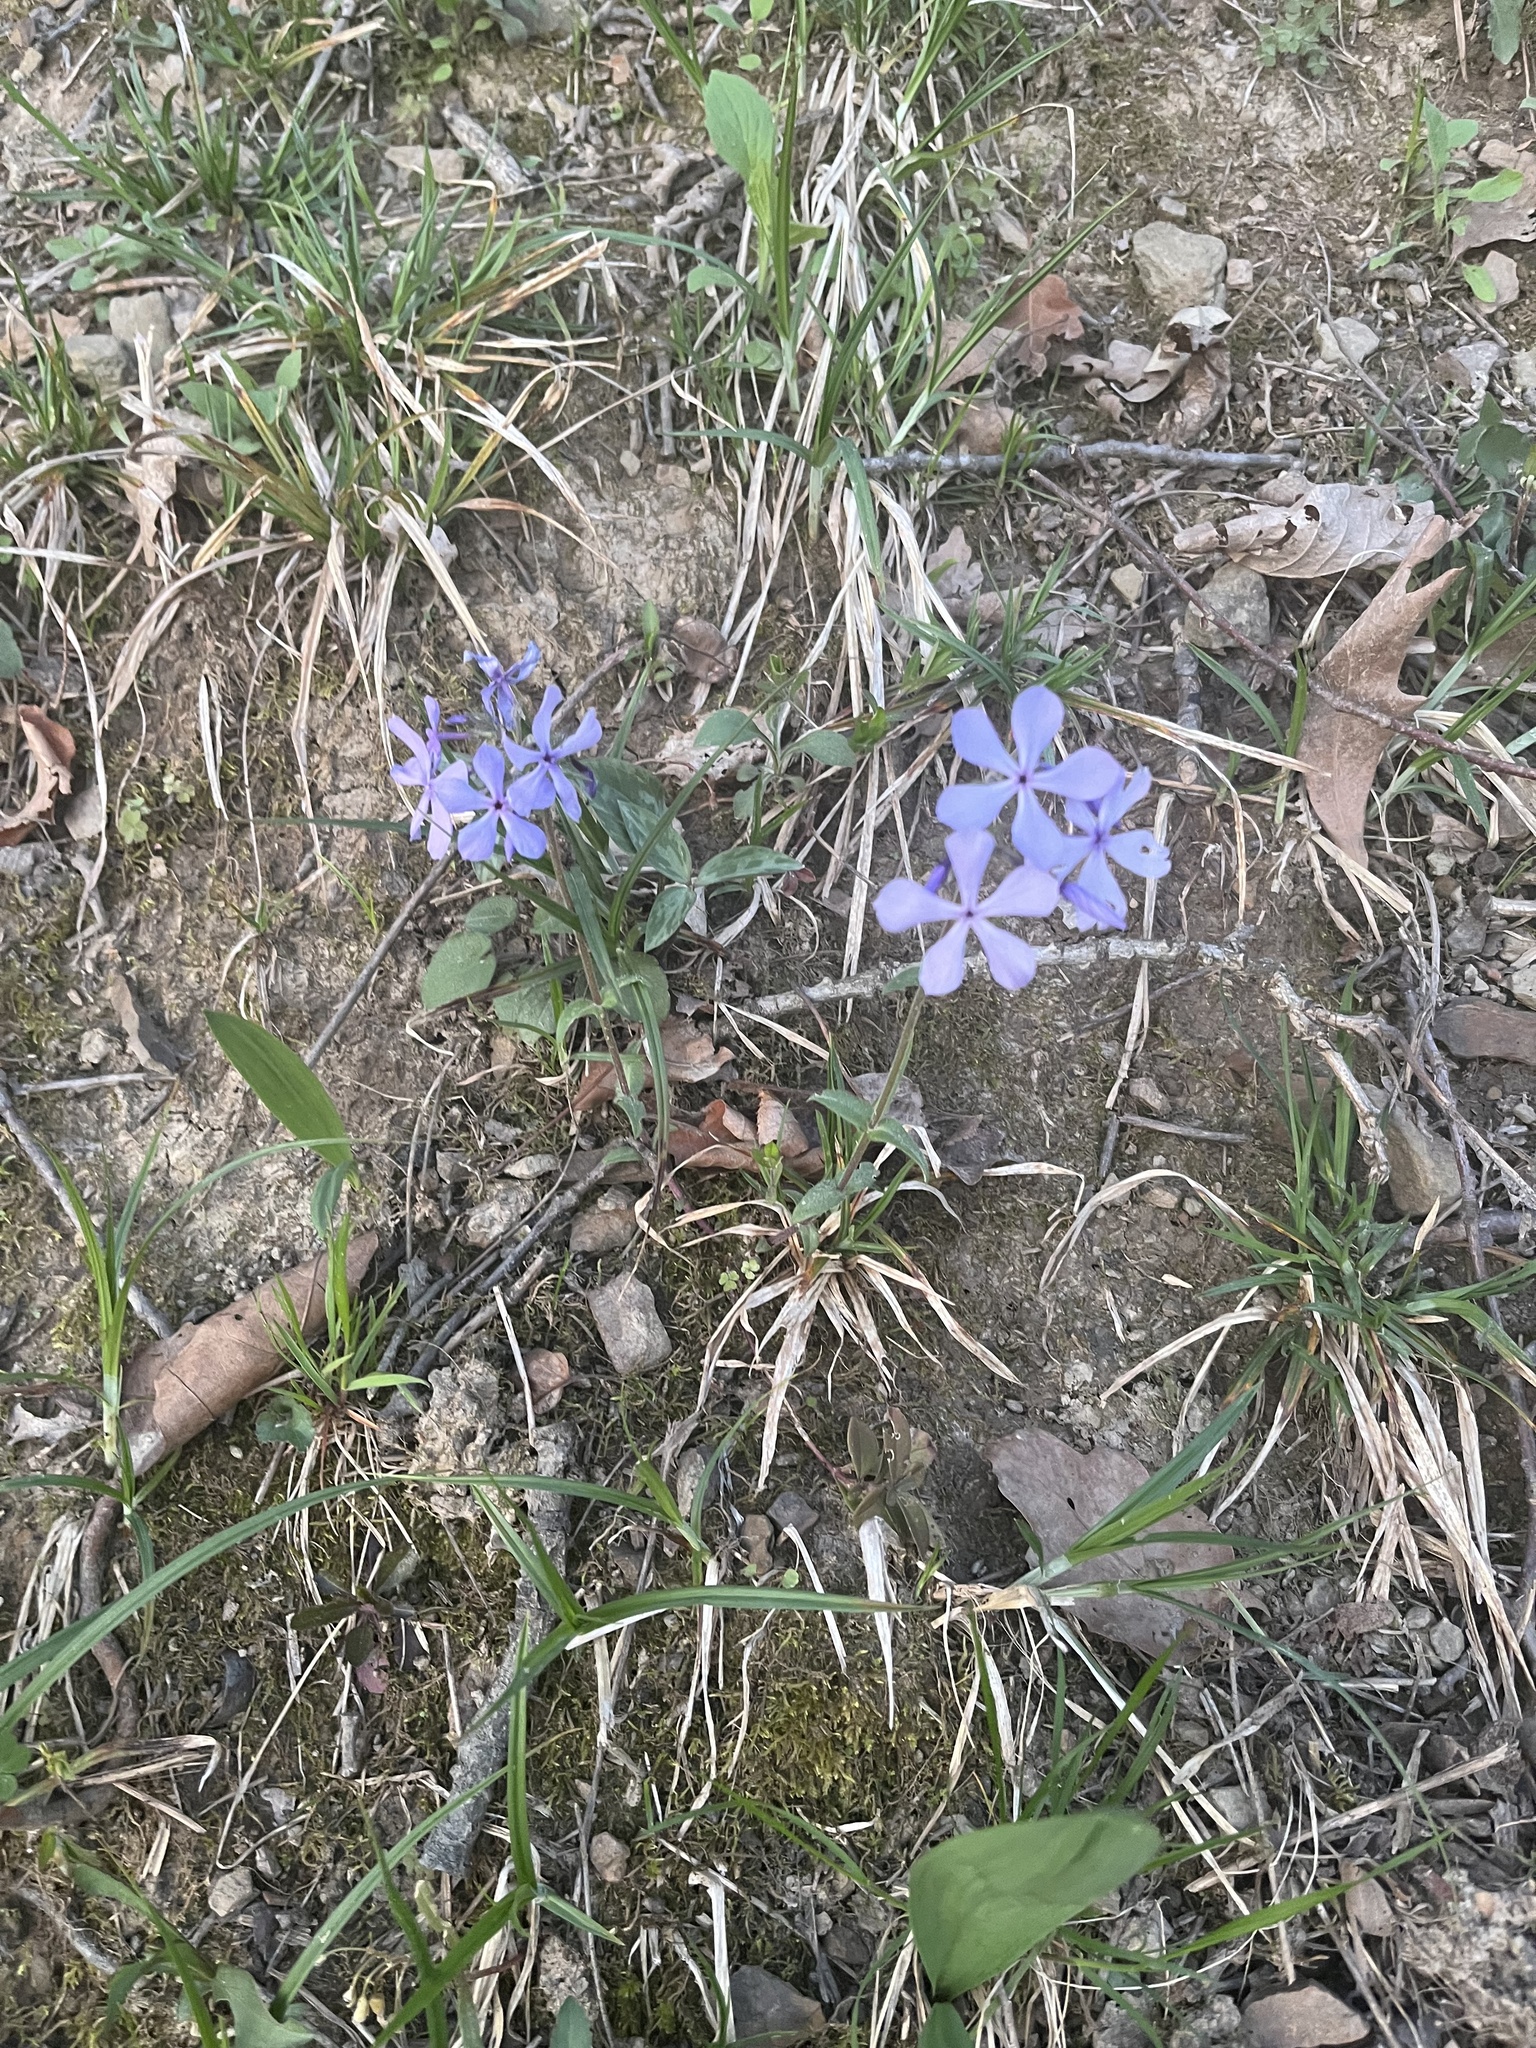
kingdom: Plantae
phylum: Tracheophyta
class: Magnoliopsida
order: Ericales
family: Polemoniaceae
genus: Phlox
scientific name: Phlox divaricata
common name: Blue phlox
